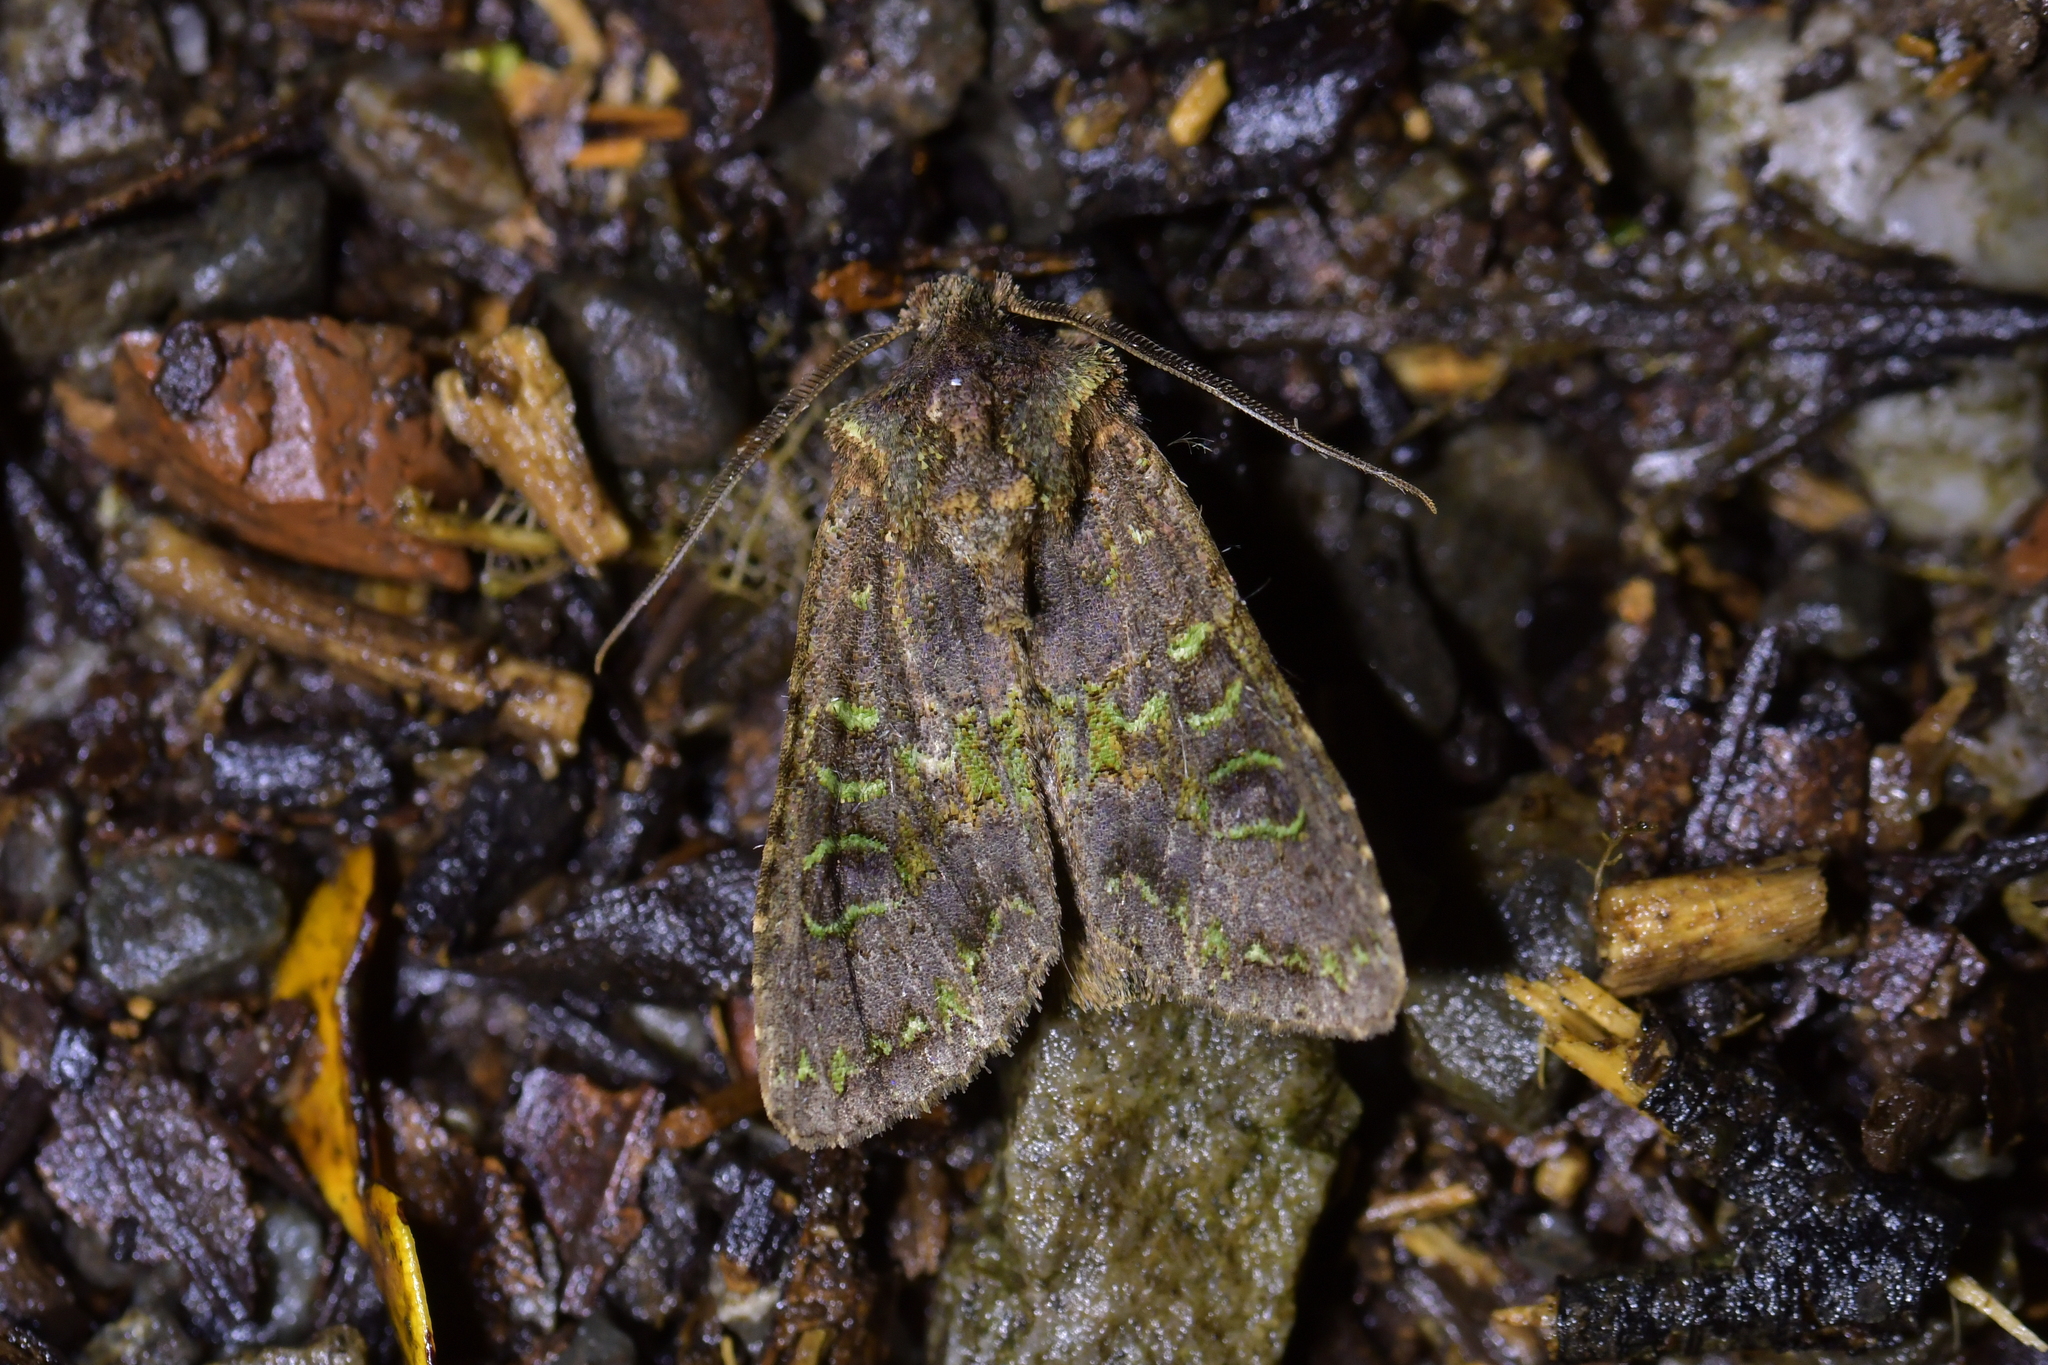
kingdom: Animalia
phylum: Arthropoda
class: Insecta
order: Lepidoptera
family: Noctuidae
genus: Ichneutica
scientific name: Ichneutica
